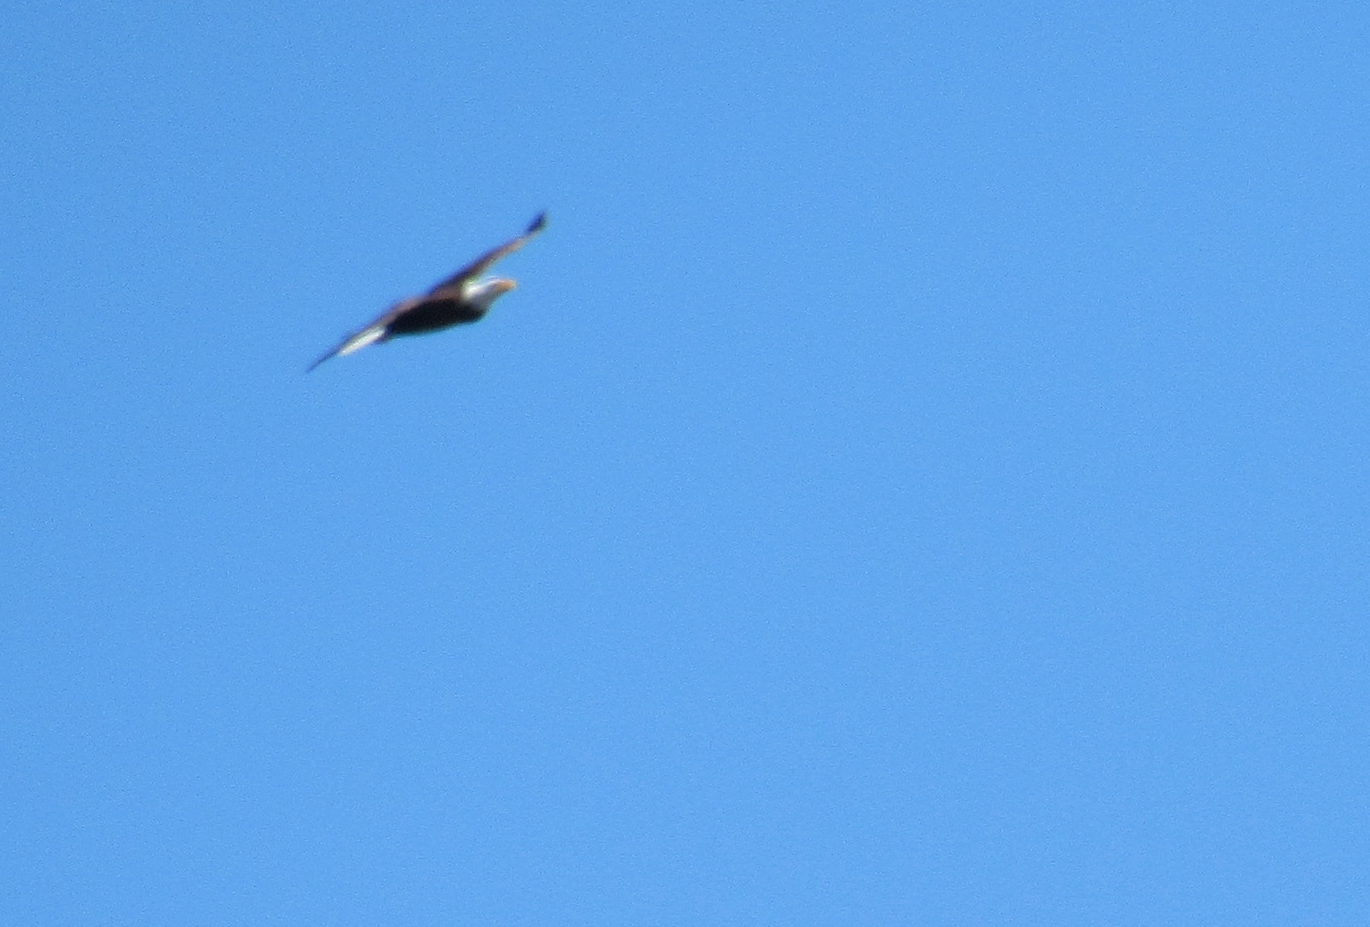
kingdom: Animalia
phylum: Chordata
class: Aves
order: Accipitriformes
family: Accipitridae
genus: Haliaeetus
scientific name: Haliaeetus leucocephalus
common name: Bald eagle
